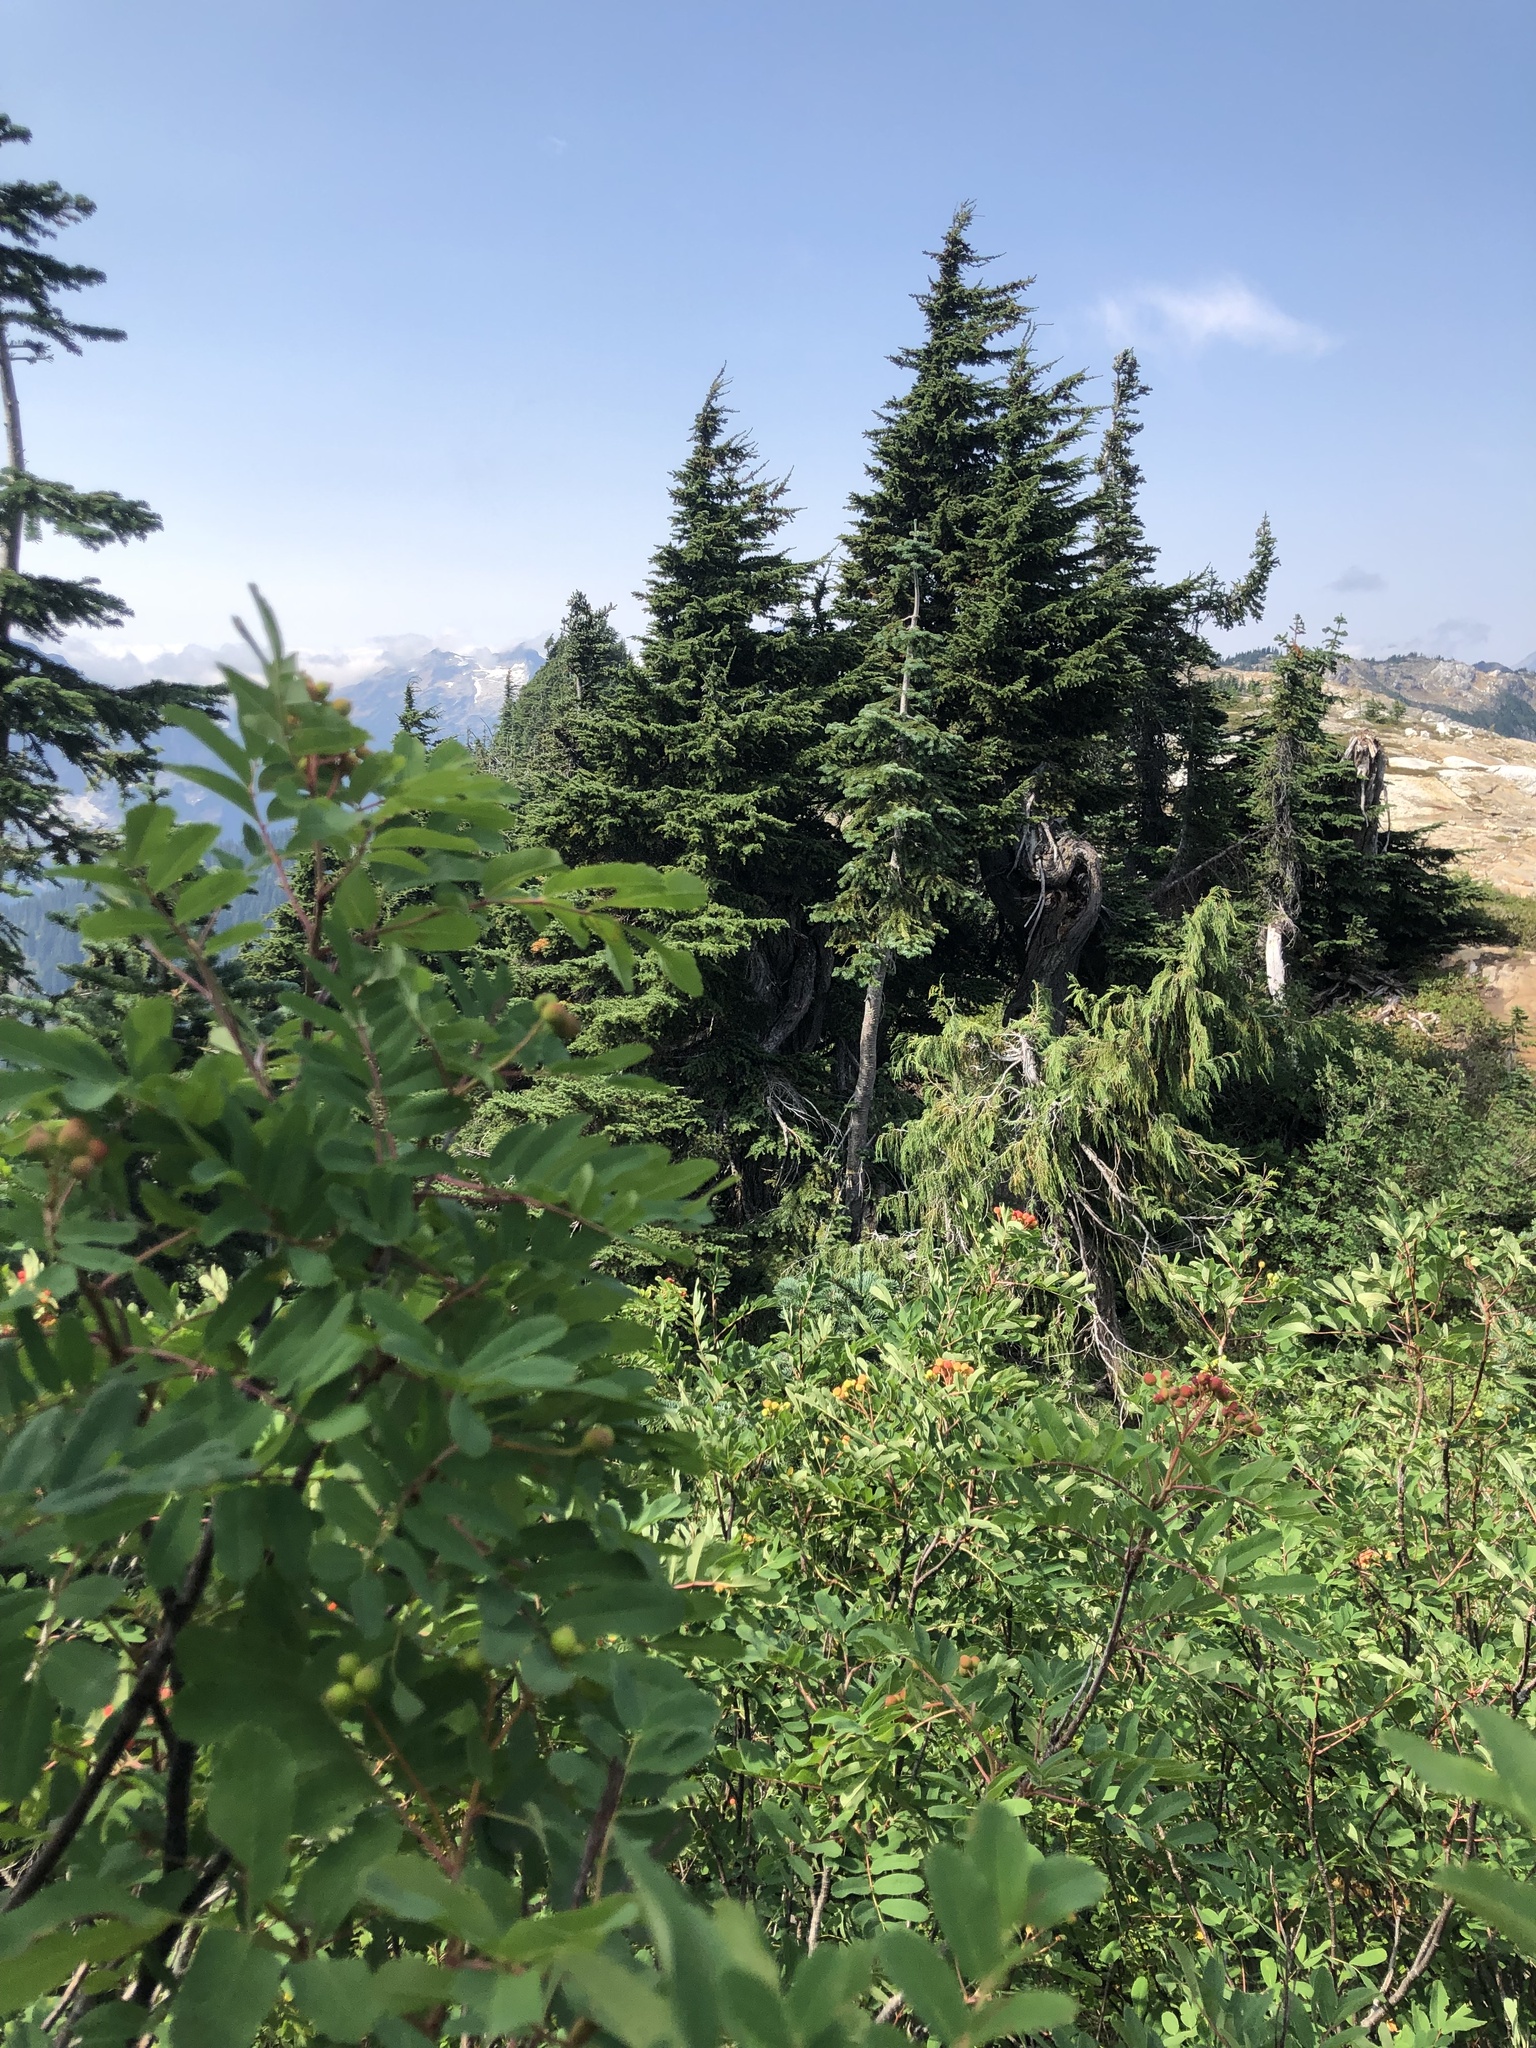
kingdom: Plantae
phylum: Tracheophyta
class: Pinopsida
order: Pinales
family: Cupressaceae
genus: Xanthocyparis
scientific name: Xanthocyparis nootkatensis
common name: Nootka cypress
